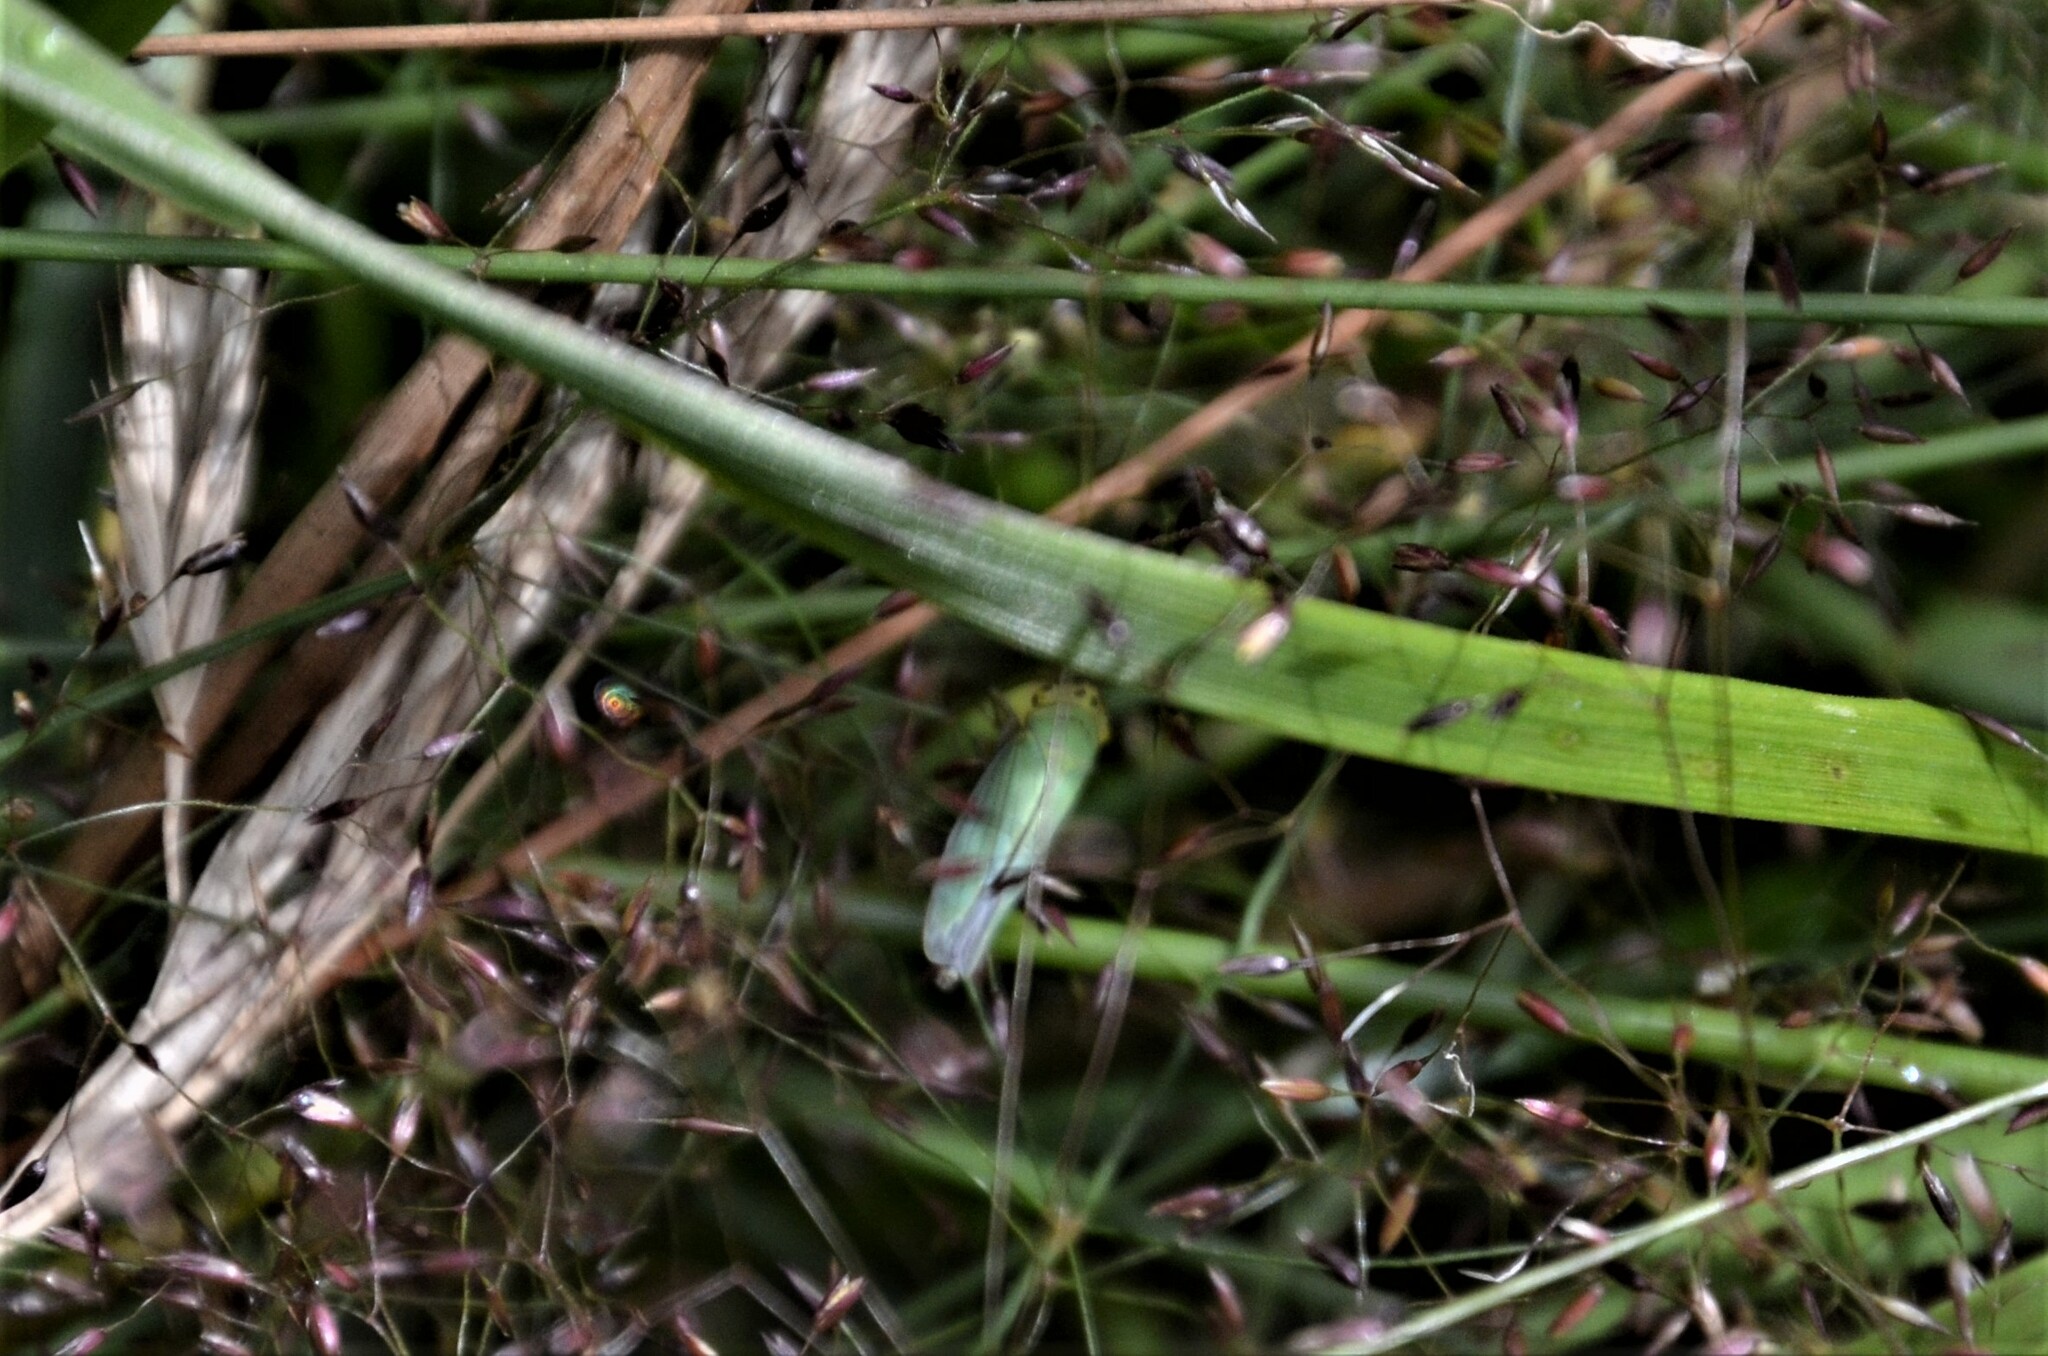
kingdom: Animalia
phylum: Arthropoda
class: Insecta
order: Hemiptera
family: Cicadellidae
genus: Cicadella
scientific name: Cicadella viridis
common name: Leafhopper
